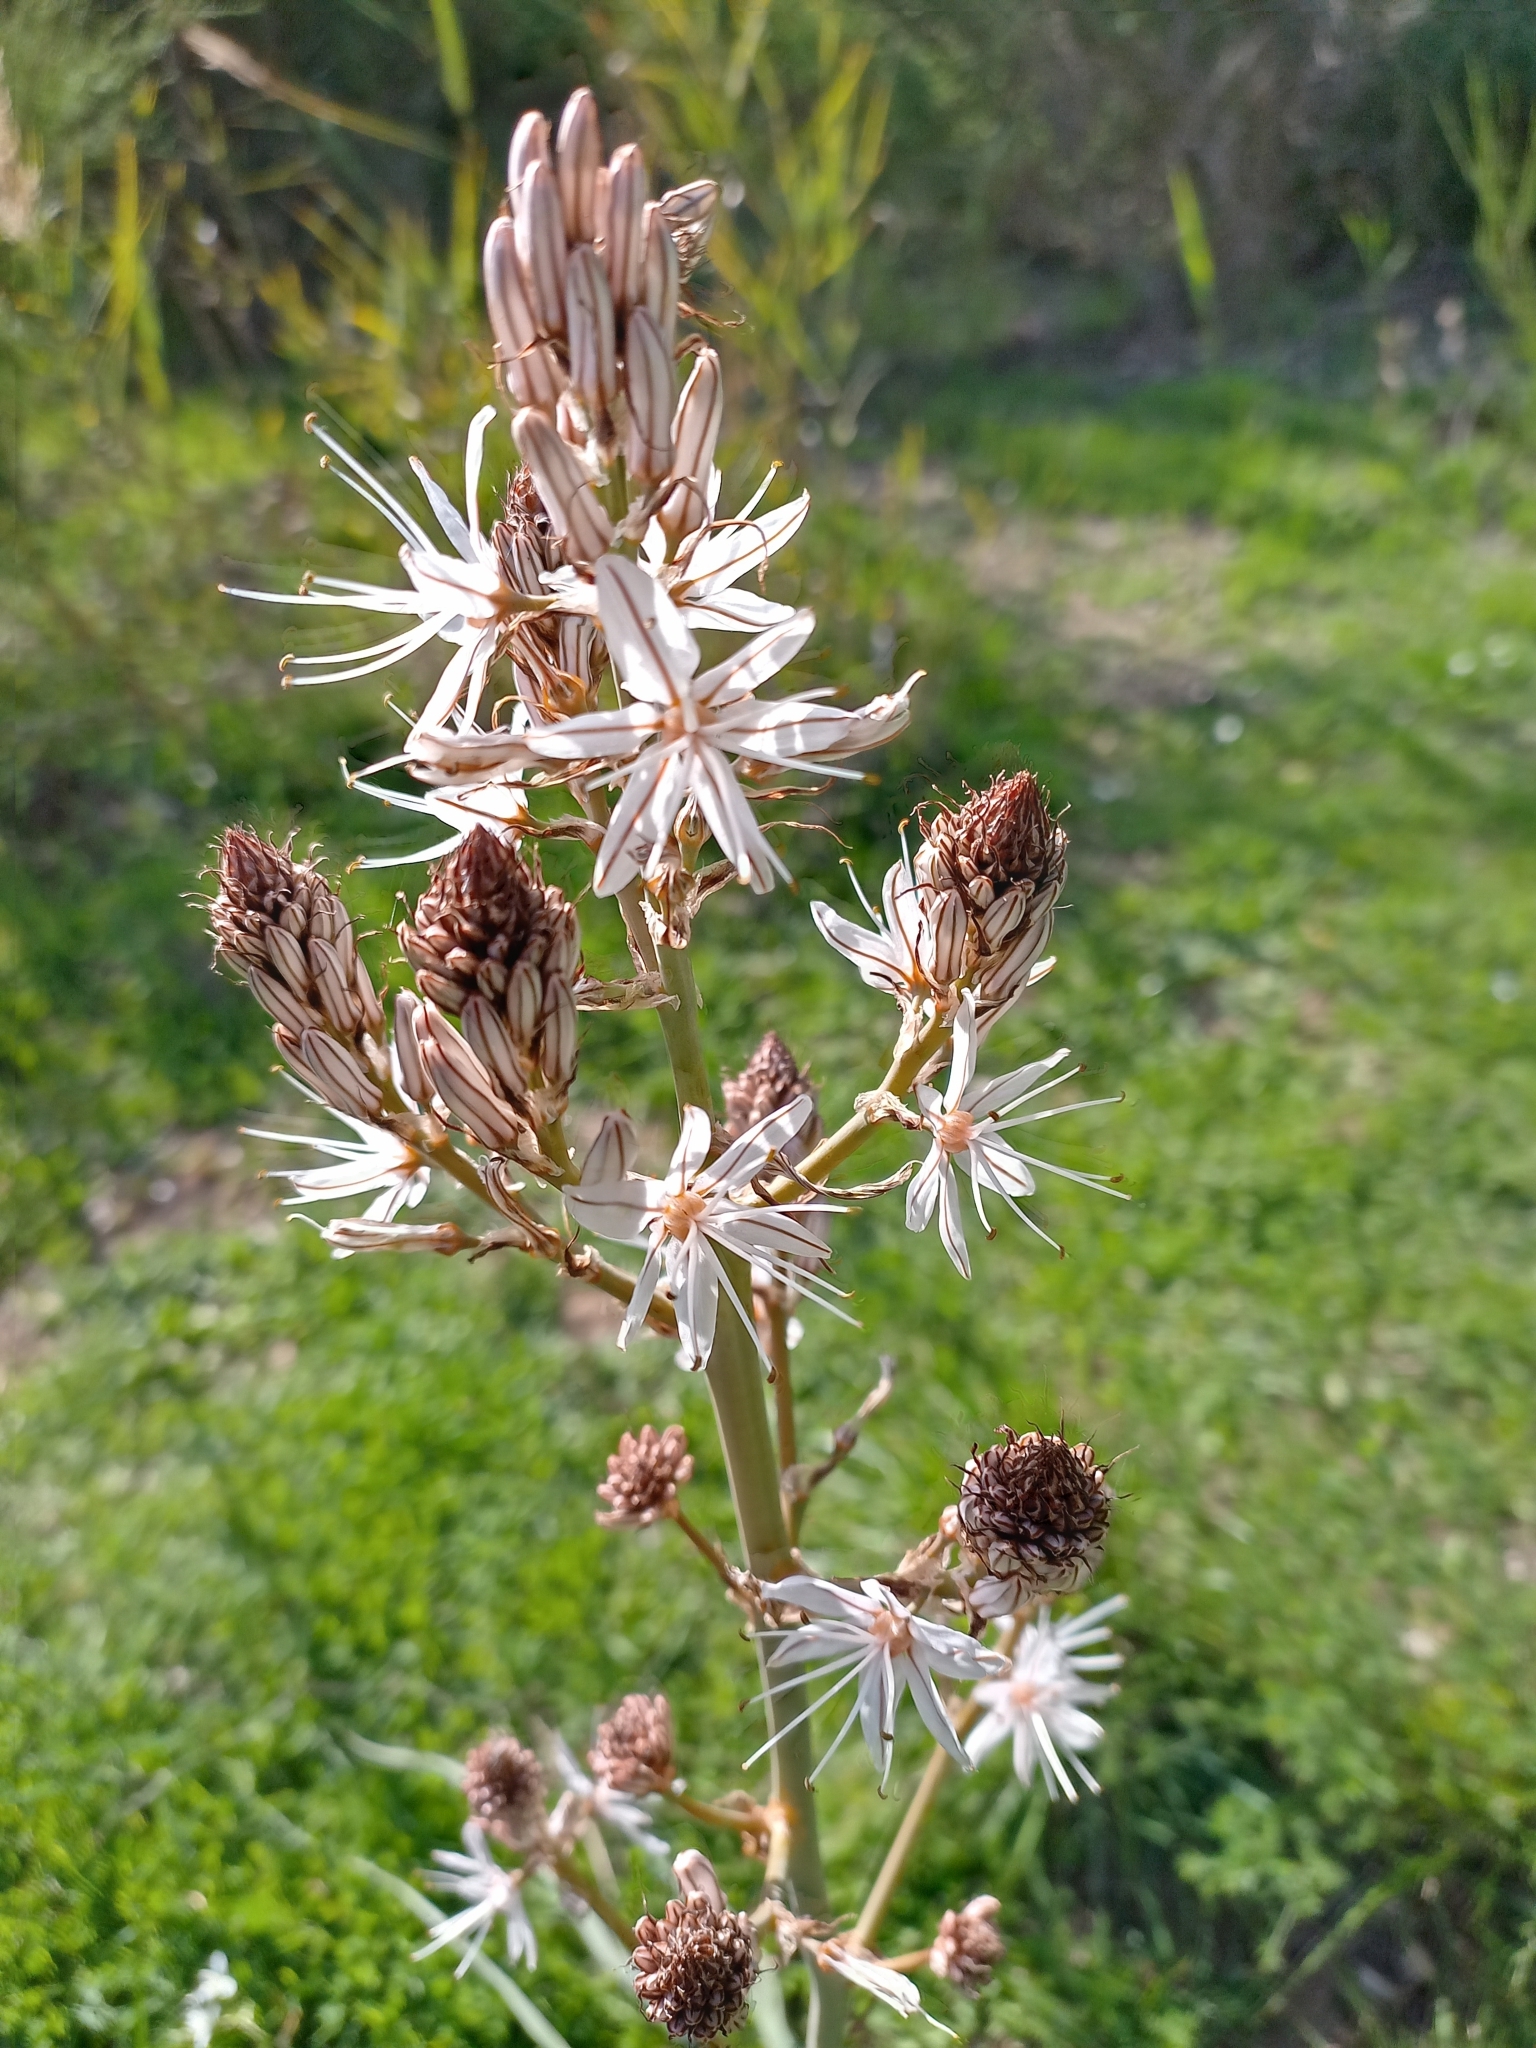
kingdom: Plantae
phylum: Tracheophyta
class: Liliopsida
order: Asparagales
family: Asphodelaceae
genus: Asphodelus
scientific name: Asphodelus ramosus
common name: Silverrod
